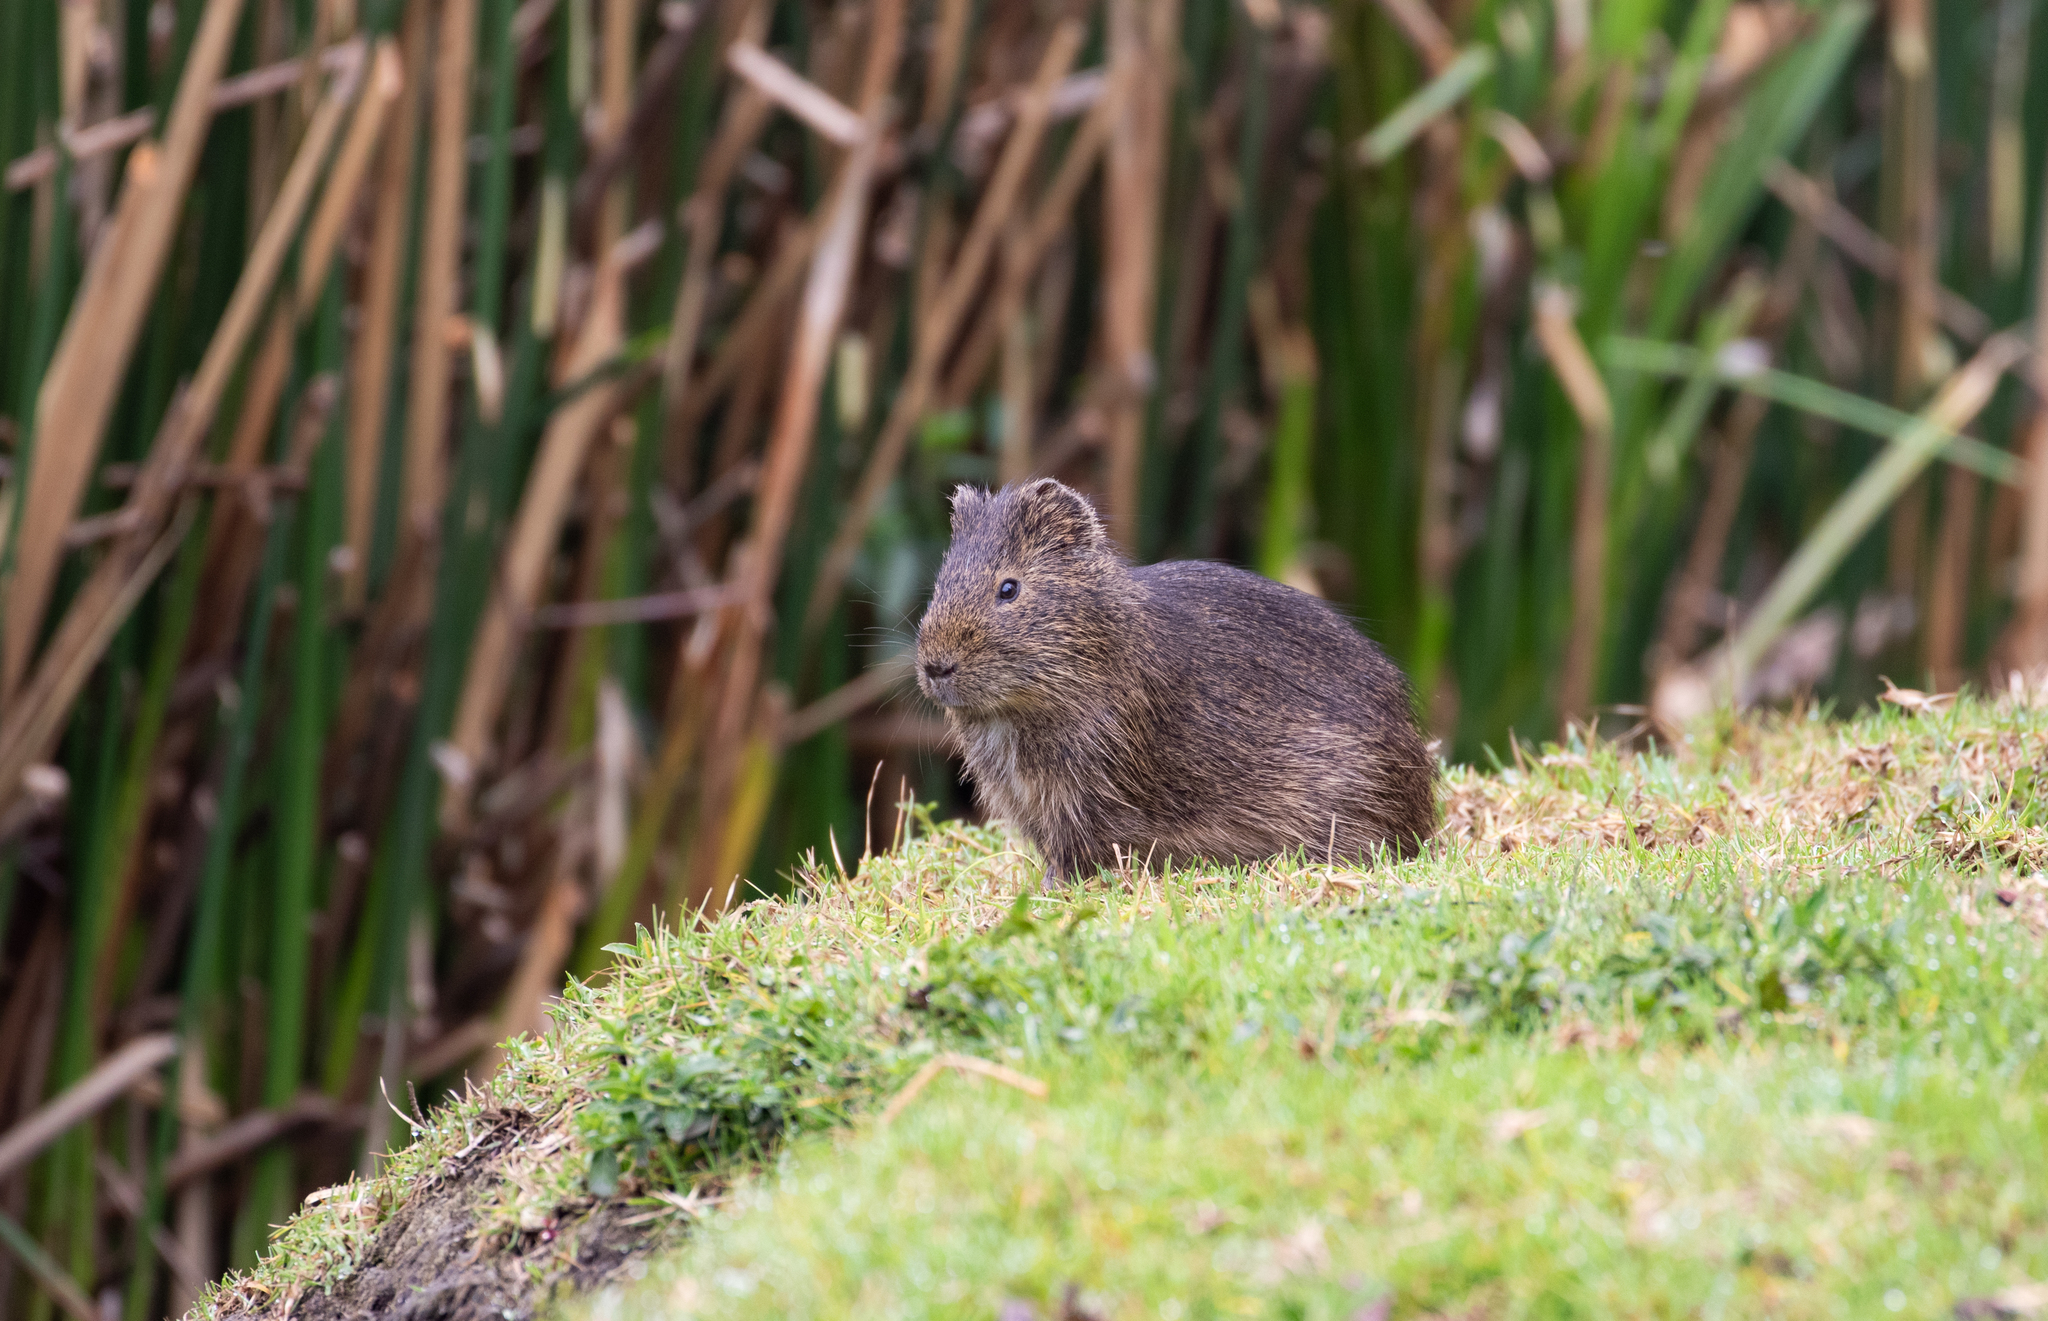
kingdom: Animalia
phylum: Chordata
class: Mammalia
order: Rodentia
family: Caviidae
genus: Cavia
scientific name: Cavia aperea
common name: Brazilian guinea pig
